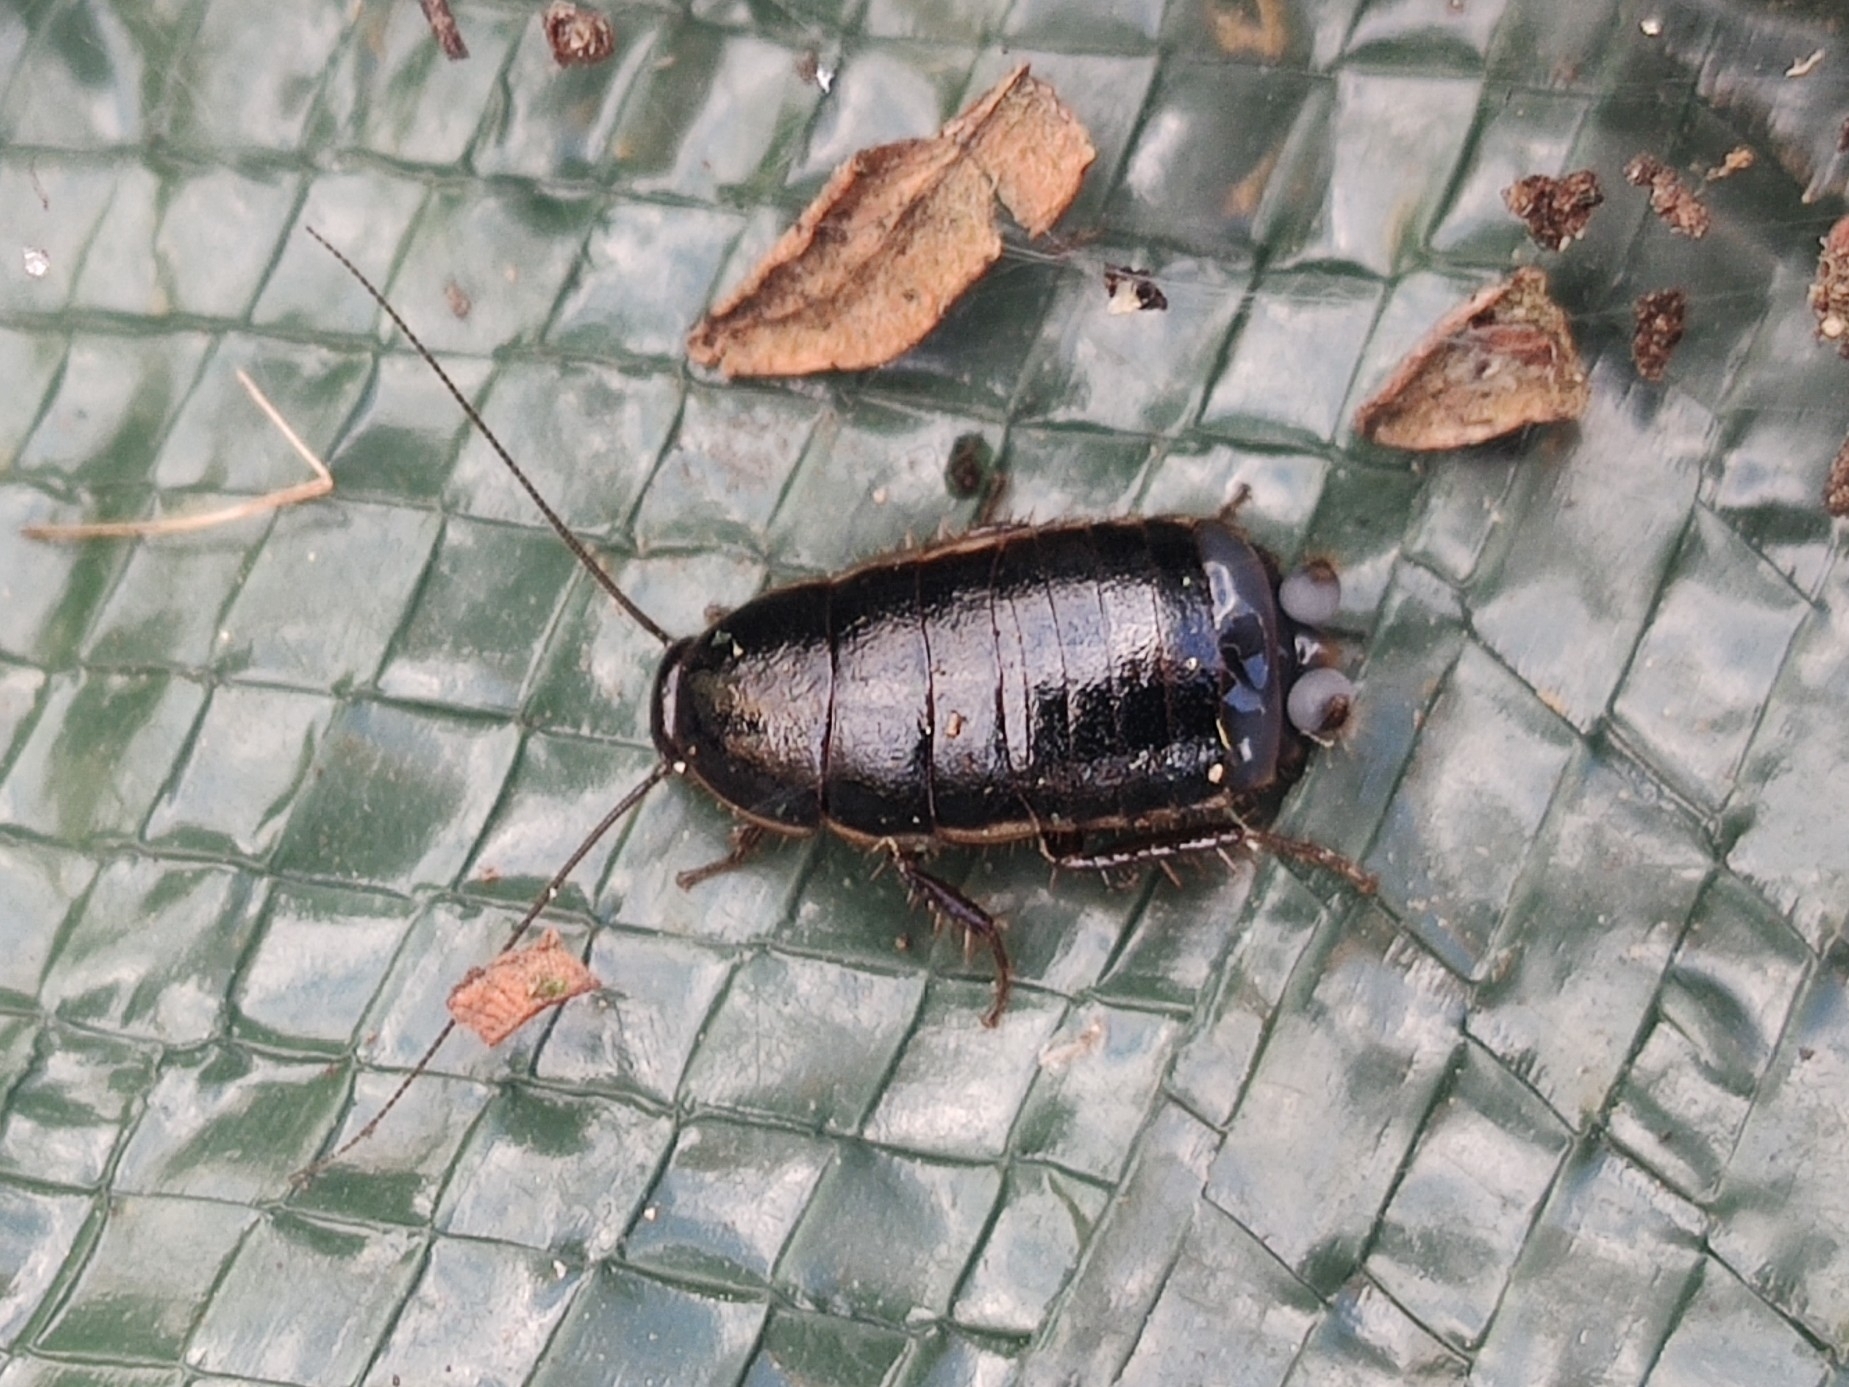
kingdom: Animalia
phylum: Arthropoda
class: Insecta
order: Blattodea
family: Ectobiidae
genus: Loboptera
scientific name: Loboptera decipiens
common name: Lobe-winged cockroach
